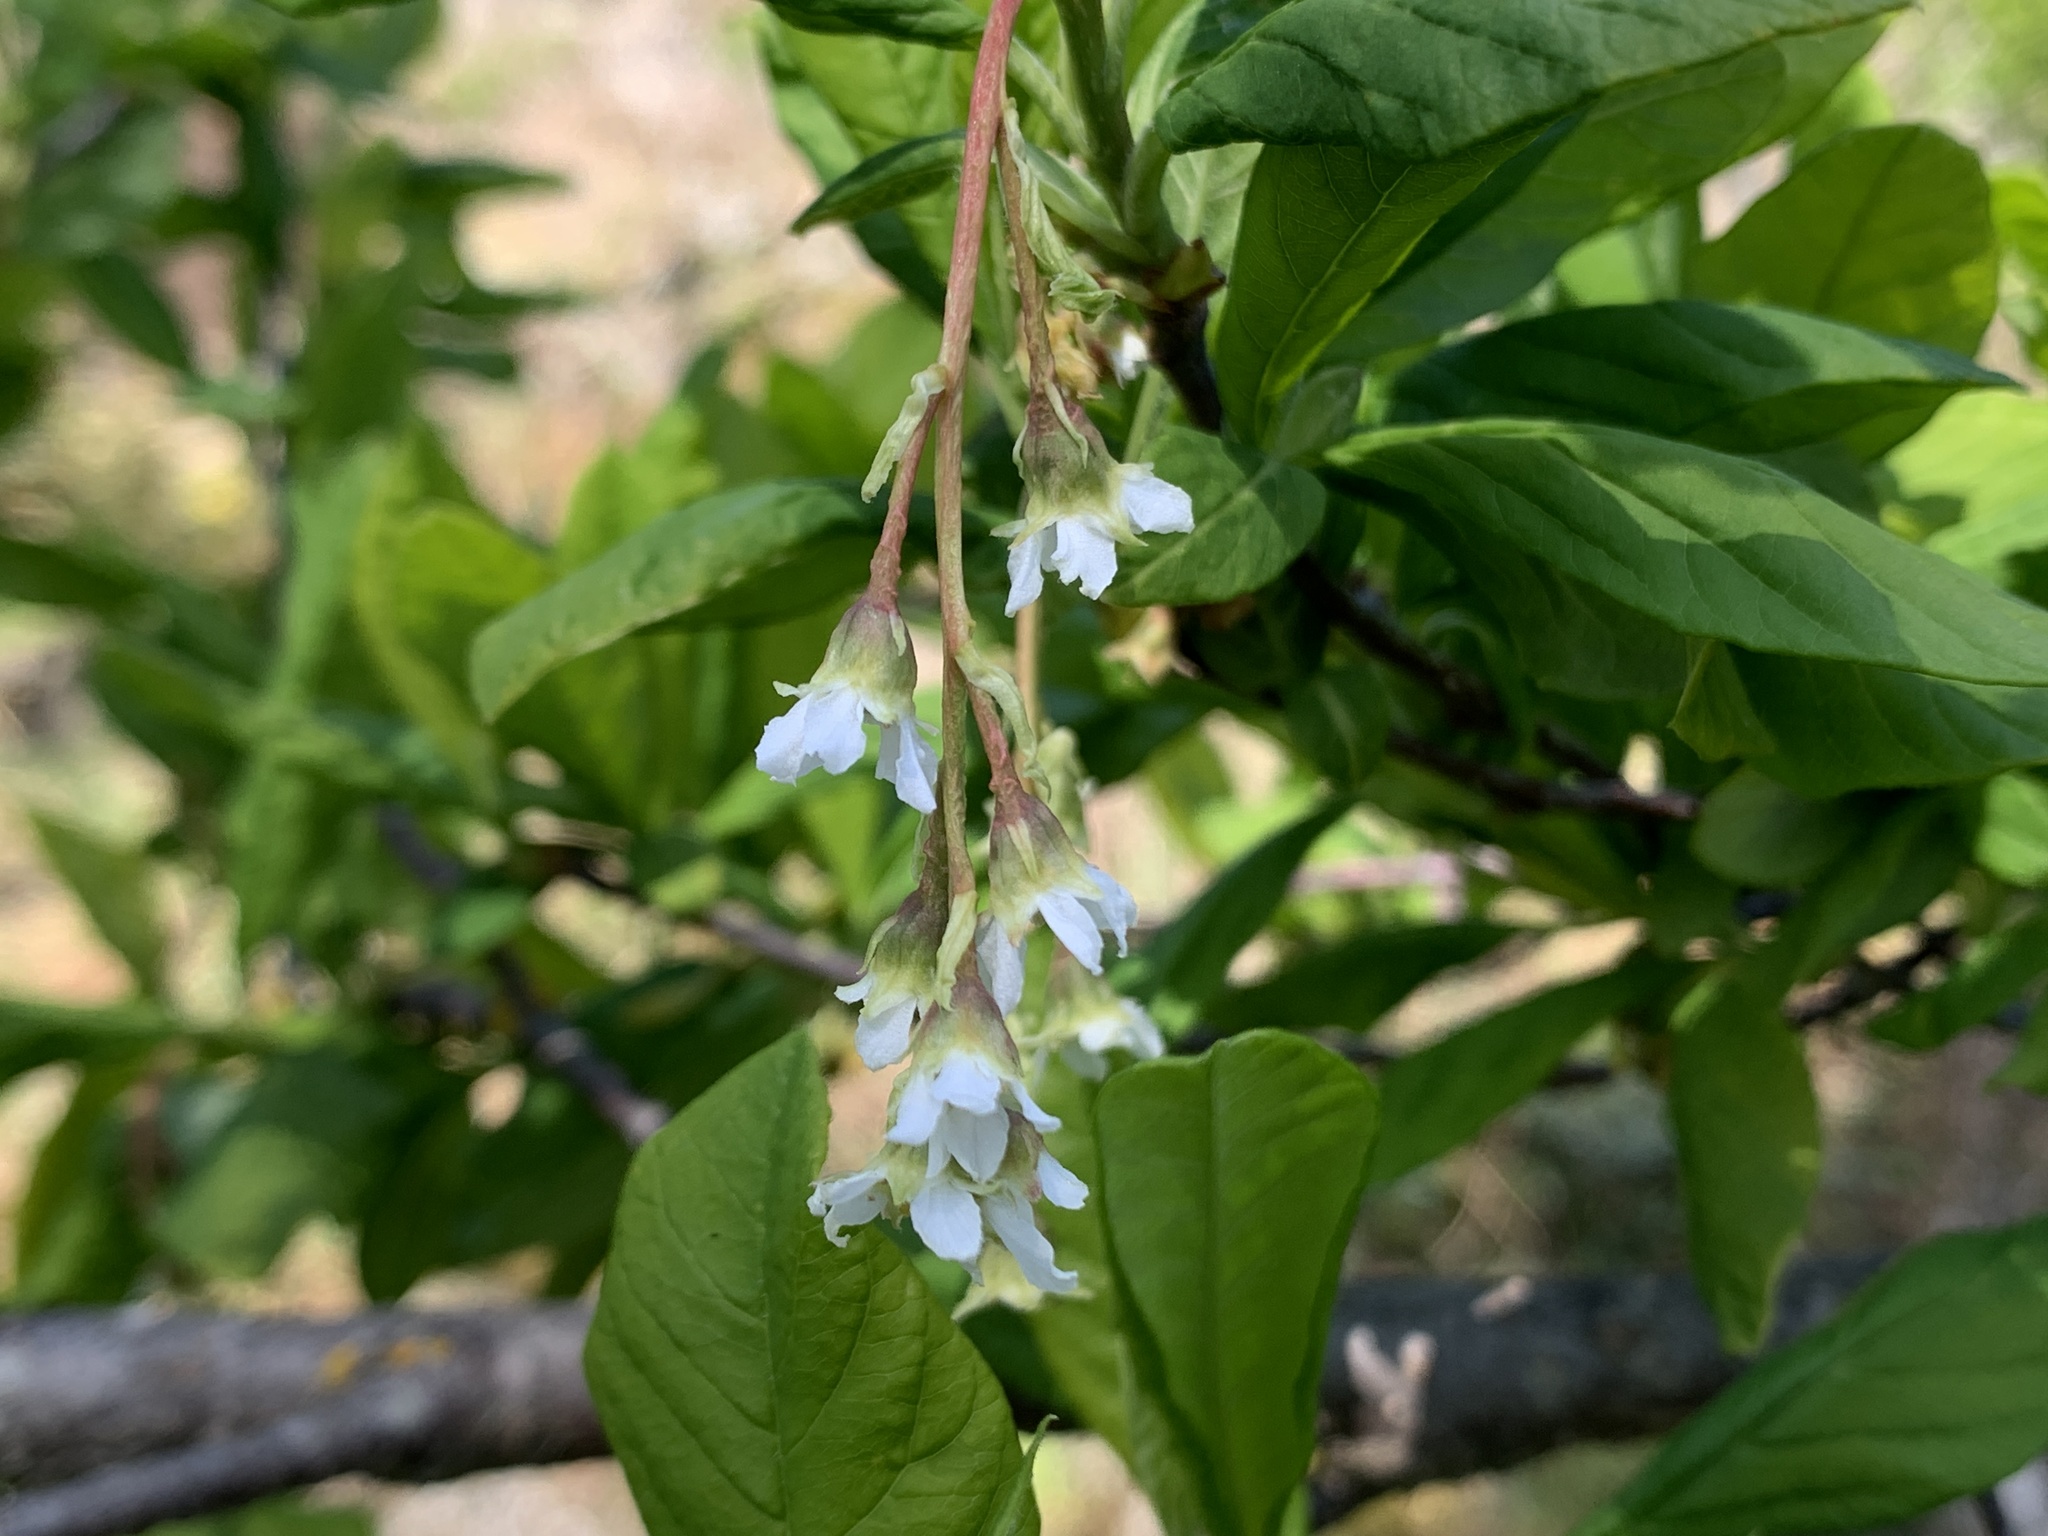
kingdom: Plantae
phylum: Tracheophyta
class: Magnoliopsida
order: Rosales
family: Rosaceae
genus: Oemleria
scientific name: Oemleria cerasiformis
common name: Osoberry
